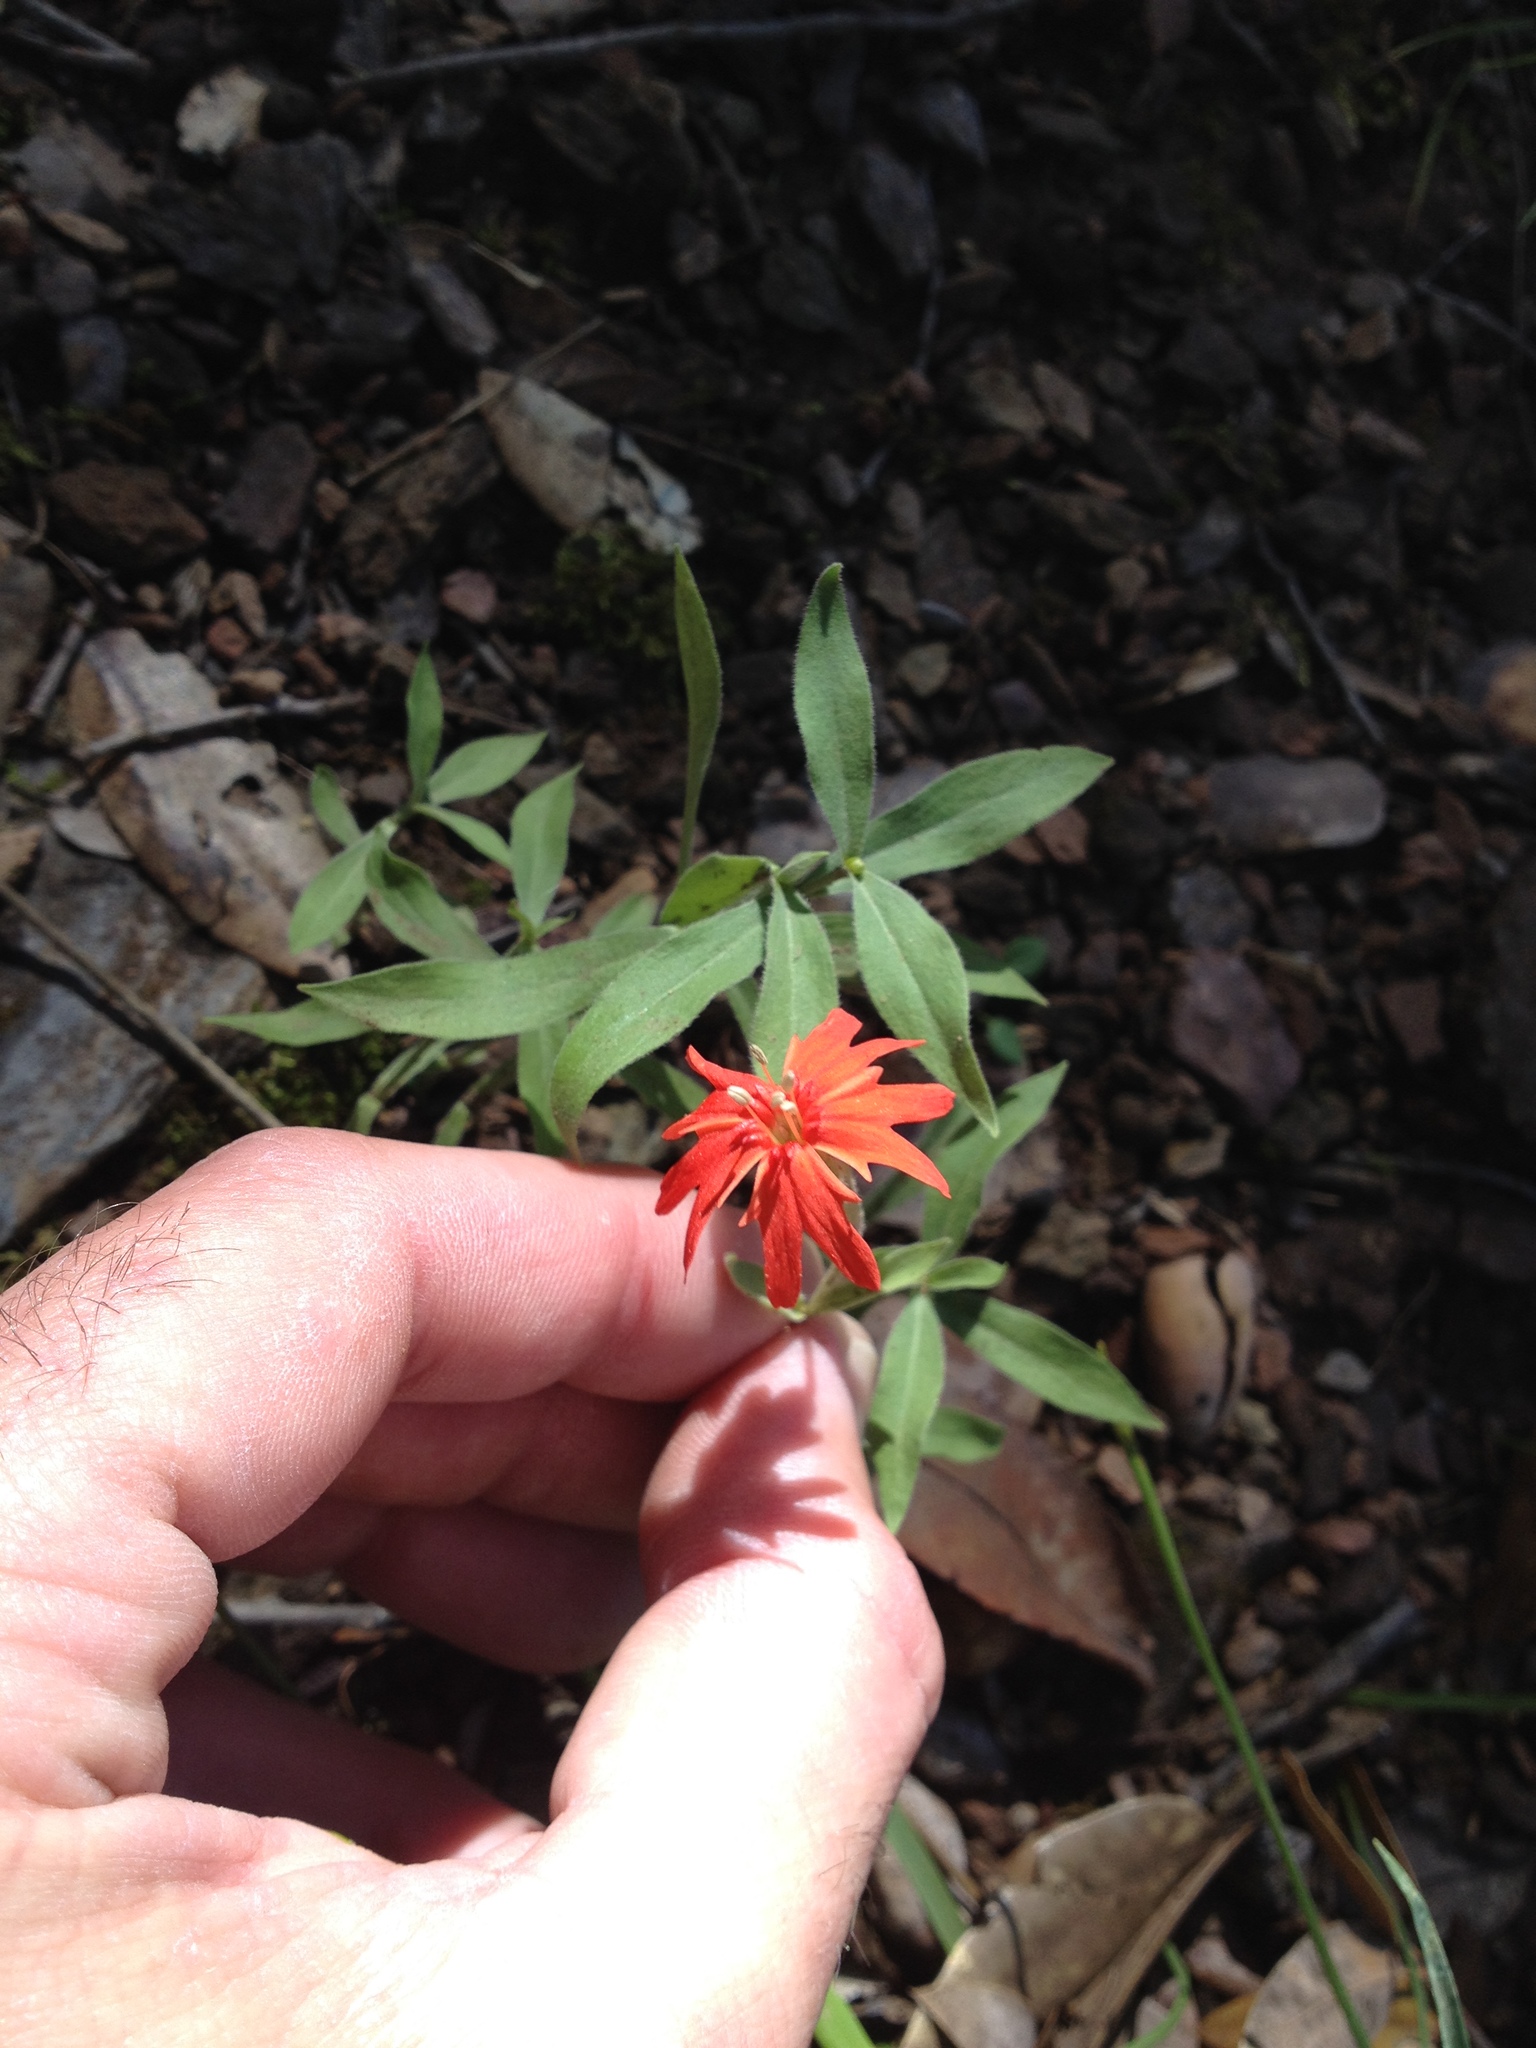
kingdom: Plantae
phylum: Tracheophyta
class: Magnoliopsida
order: Caryophyllales
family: Caryophyllaceae
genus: Silene
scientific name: Silene laciniata
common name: Indian-pink
